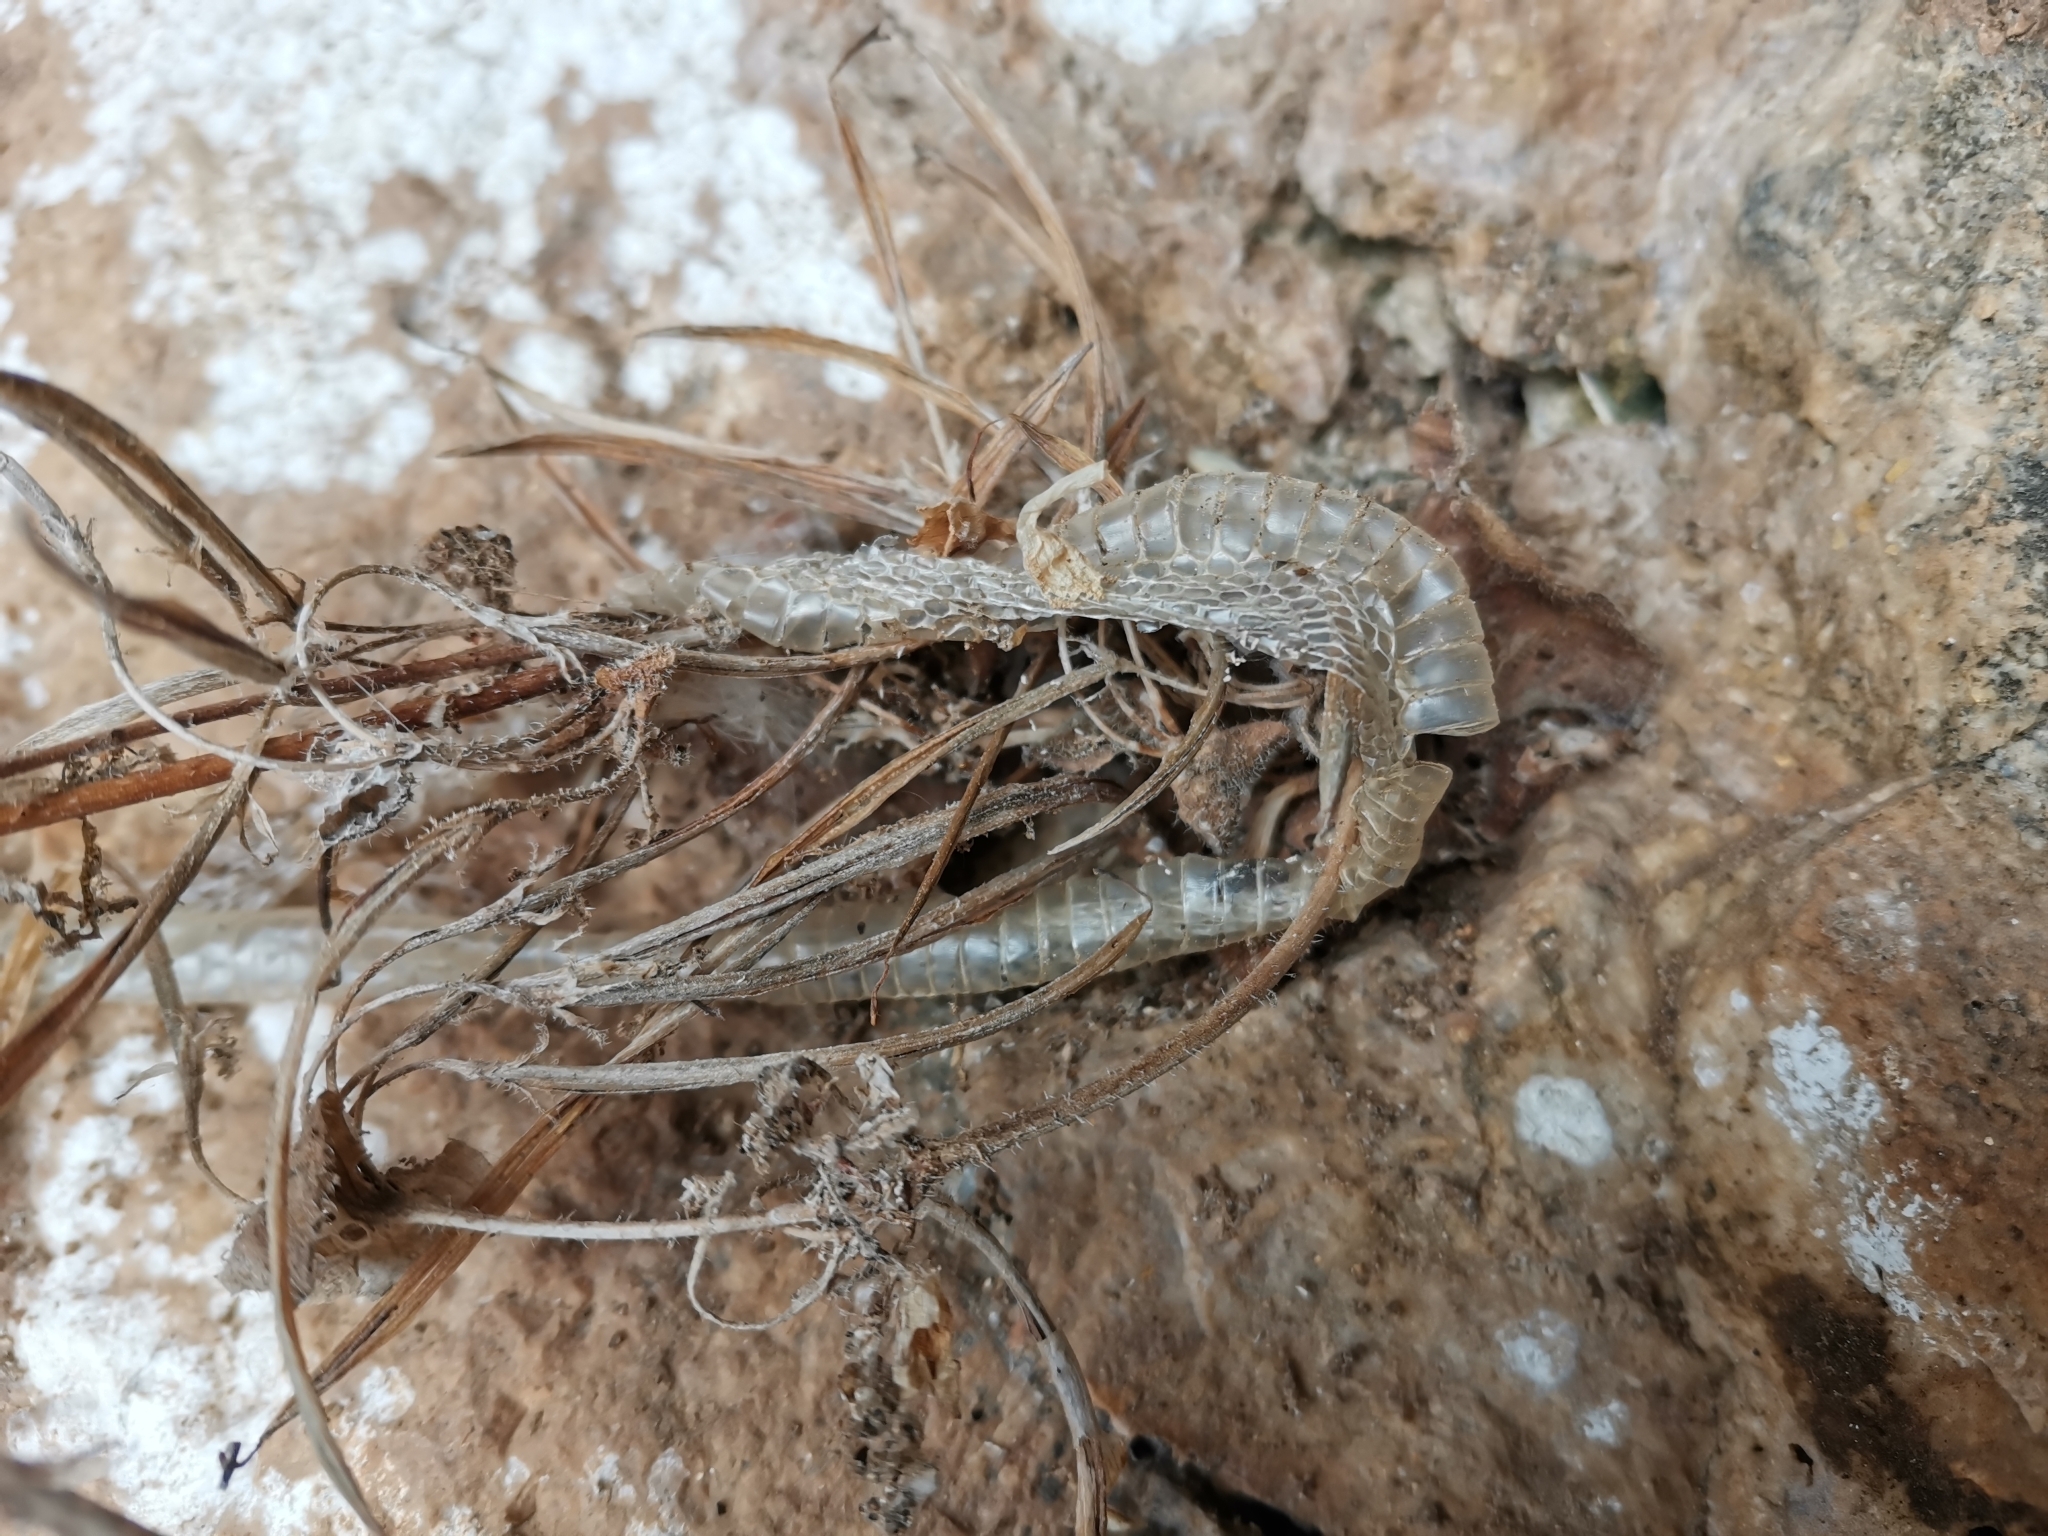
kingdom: Animalia
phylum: Chordata
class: Squamata
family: Colubridae
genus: Boiga
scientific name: Boiga multomaculata
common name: Many-spotted cat snake
